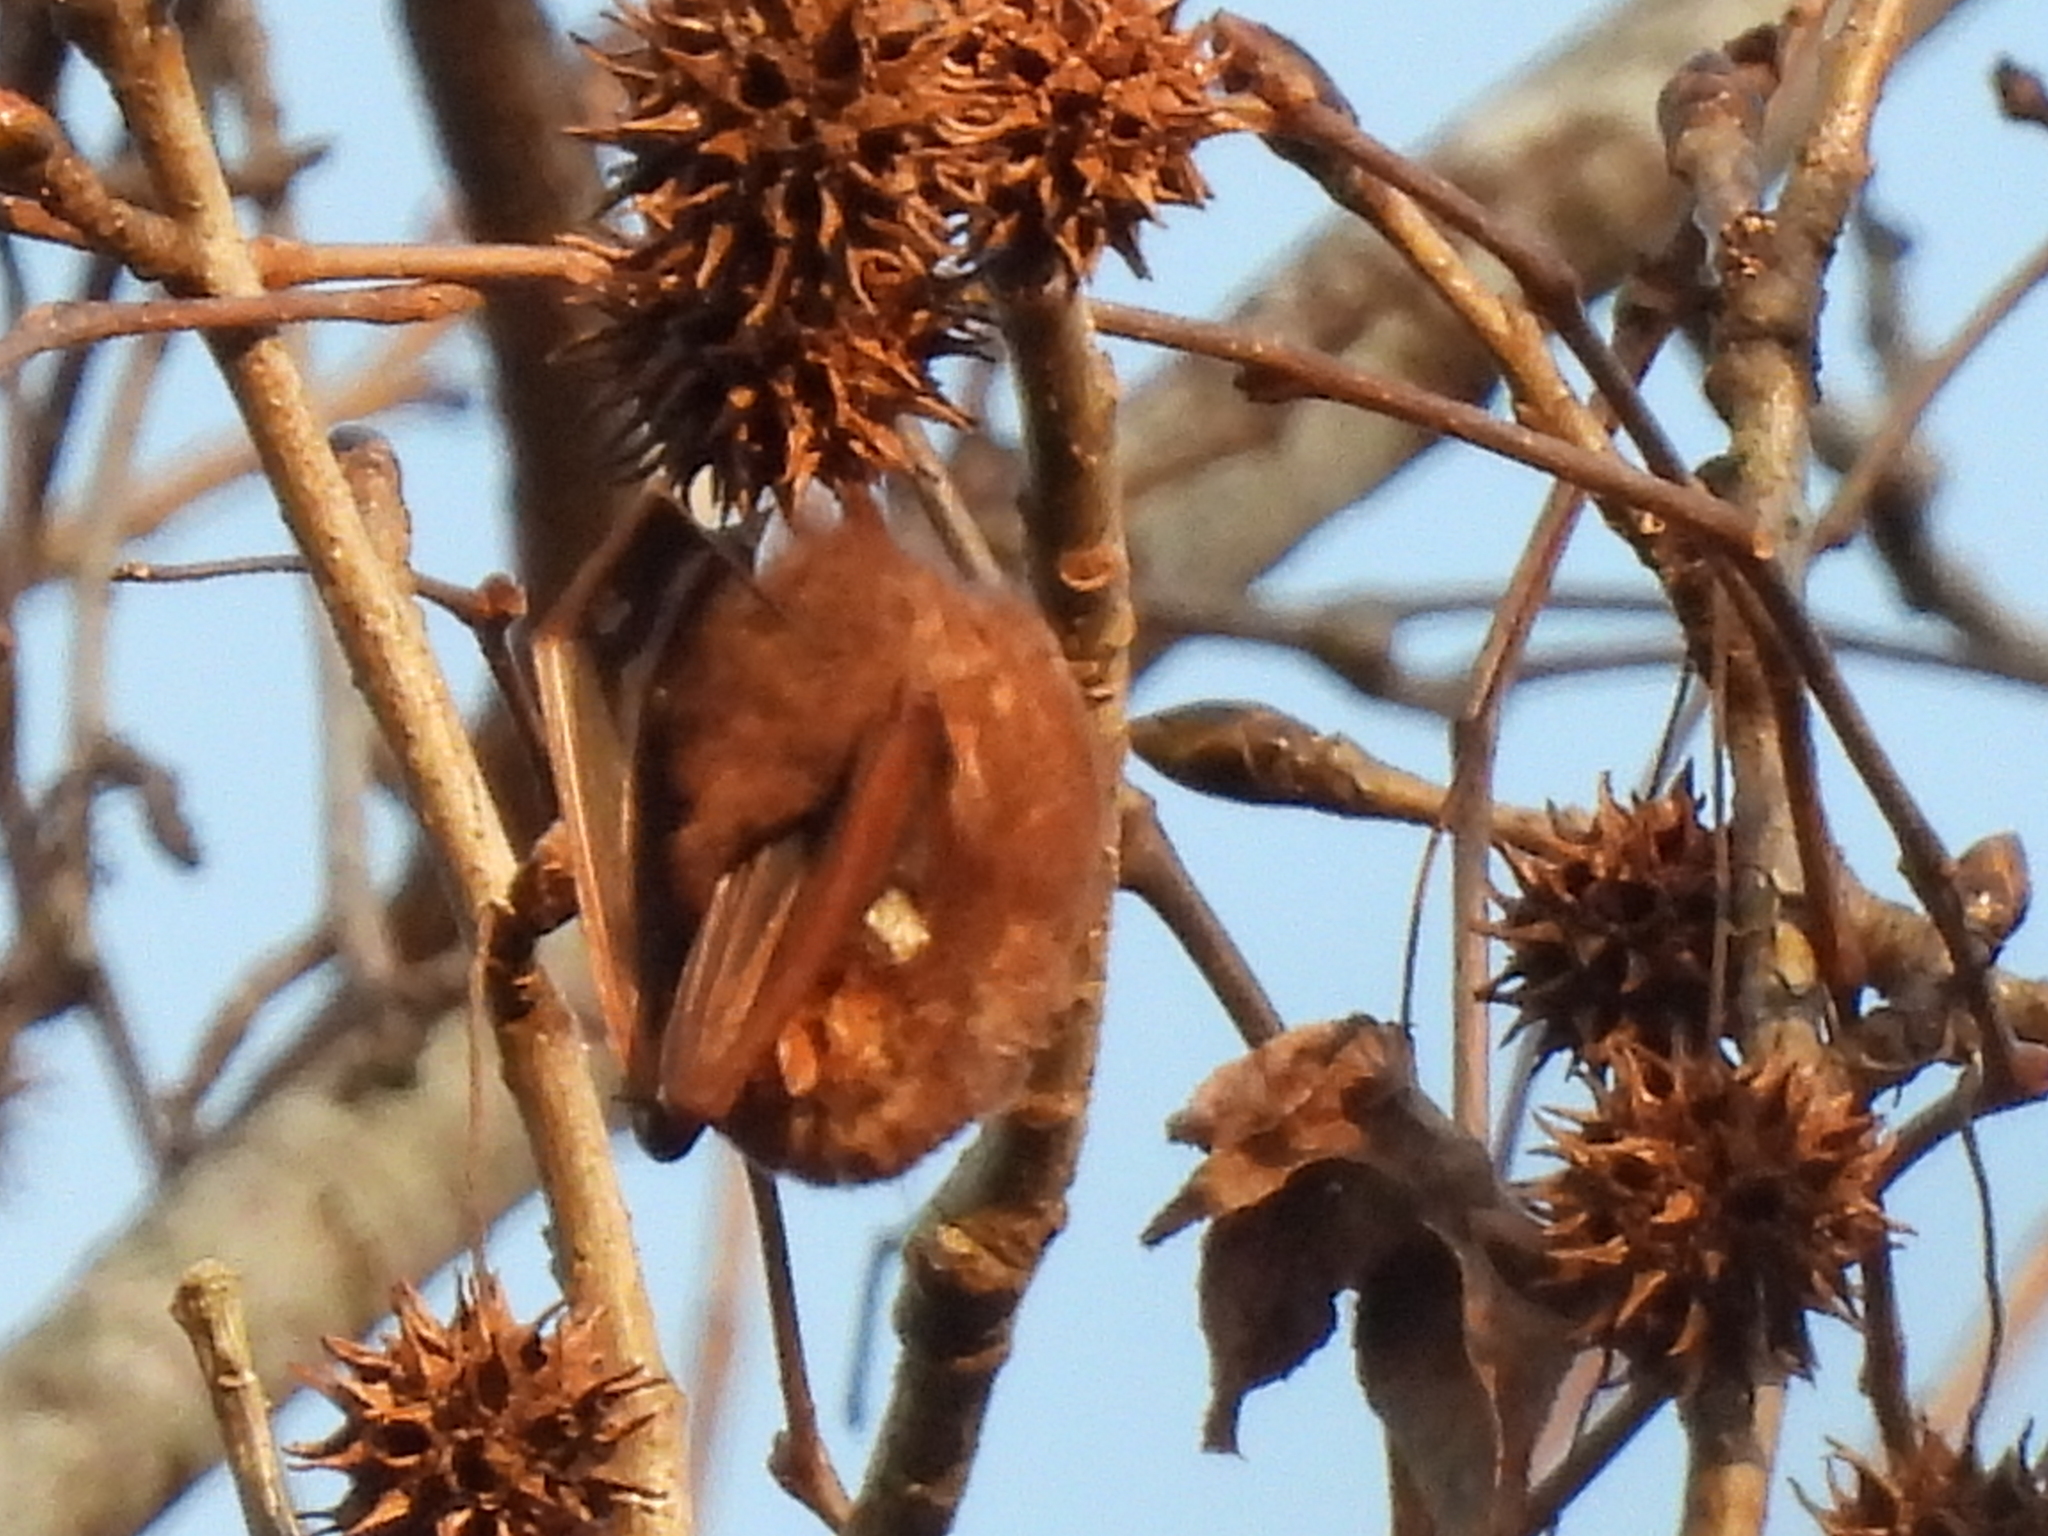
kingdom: Animalia
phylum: Chordata
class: Mammalia
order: Chiroptera
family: Vespertilionidae
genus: Lasiurus
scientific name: Lasiurus borealis
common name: Eastern red bat
